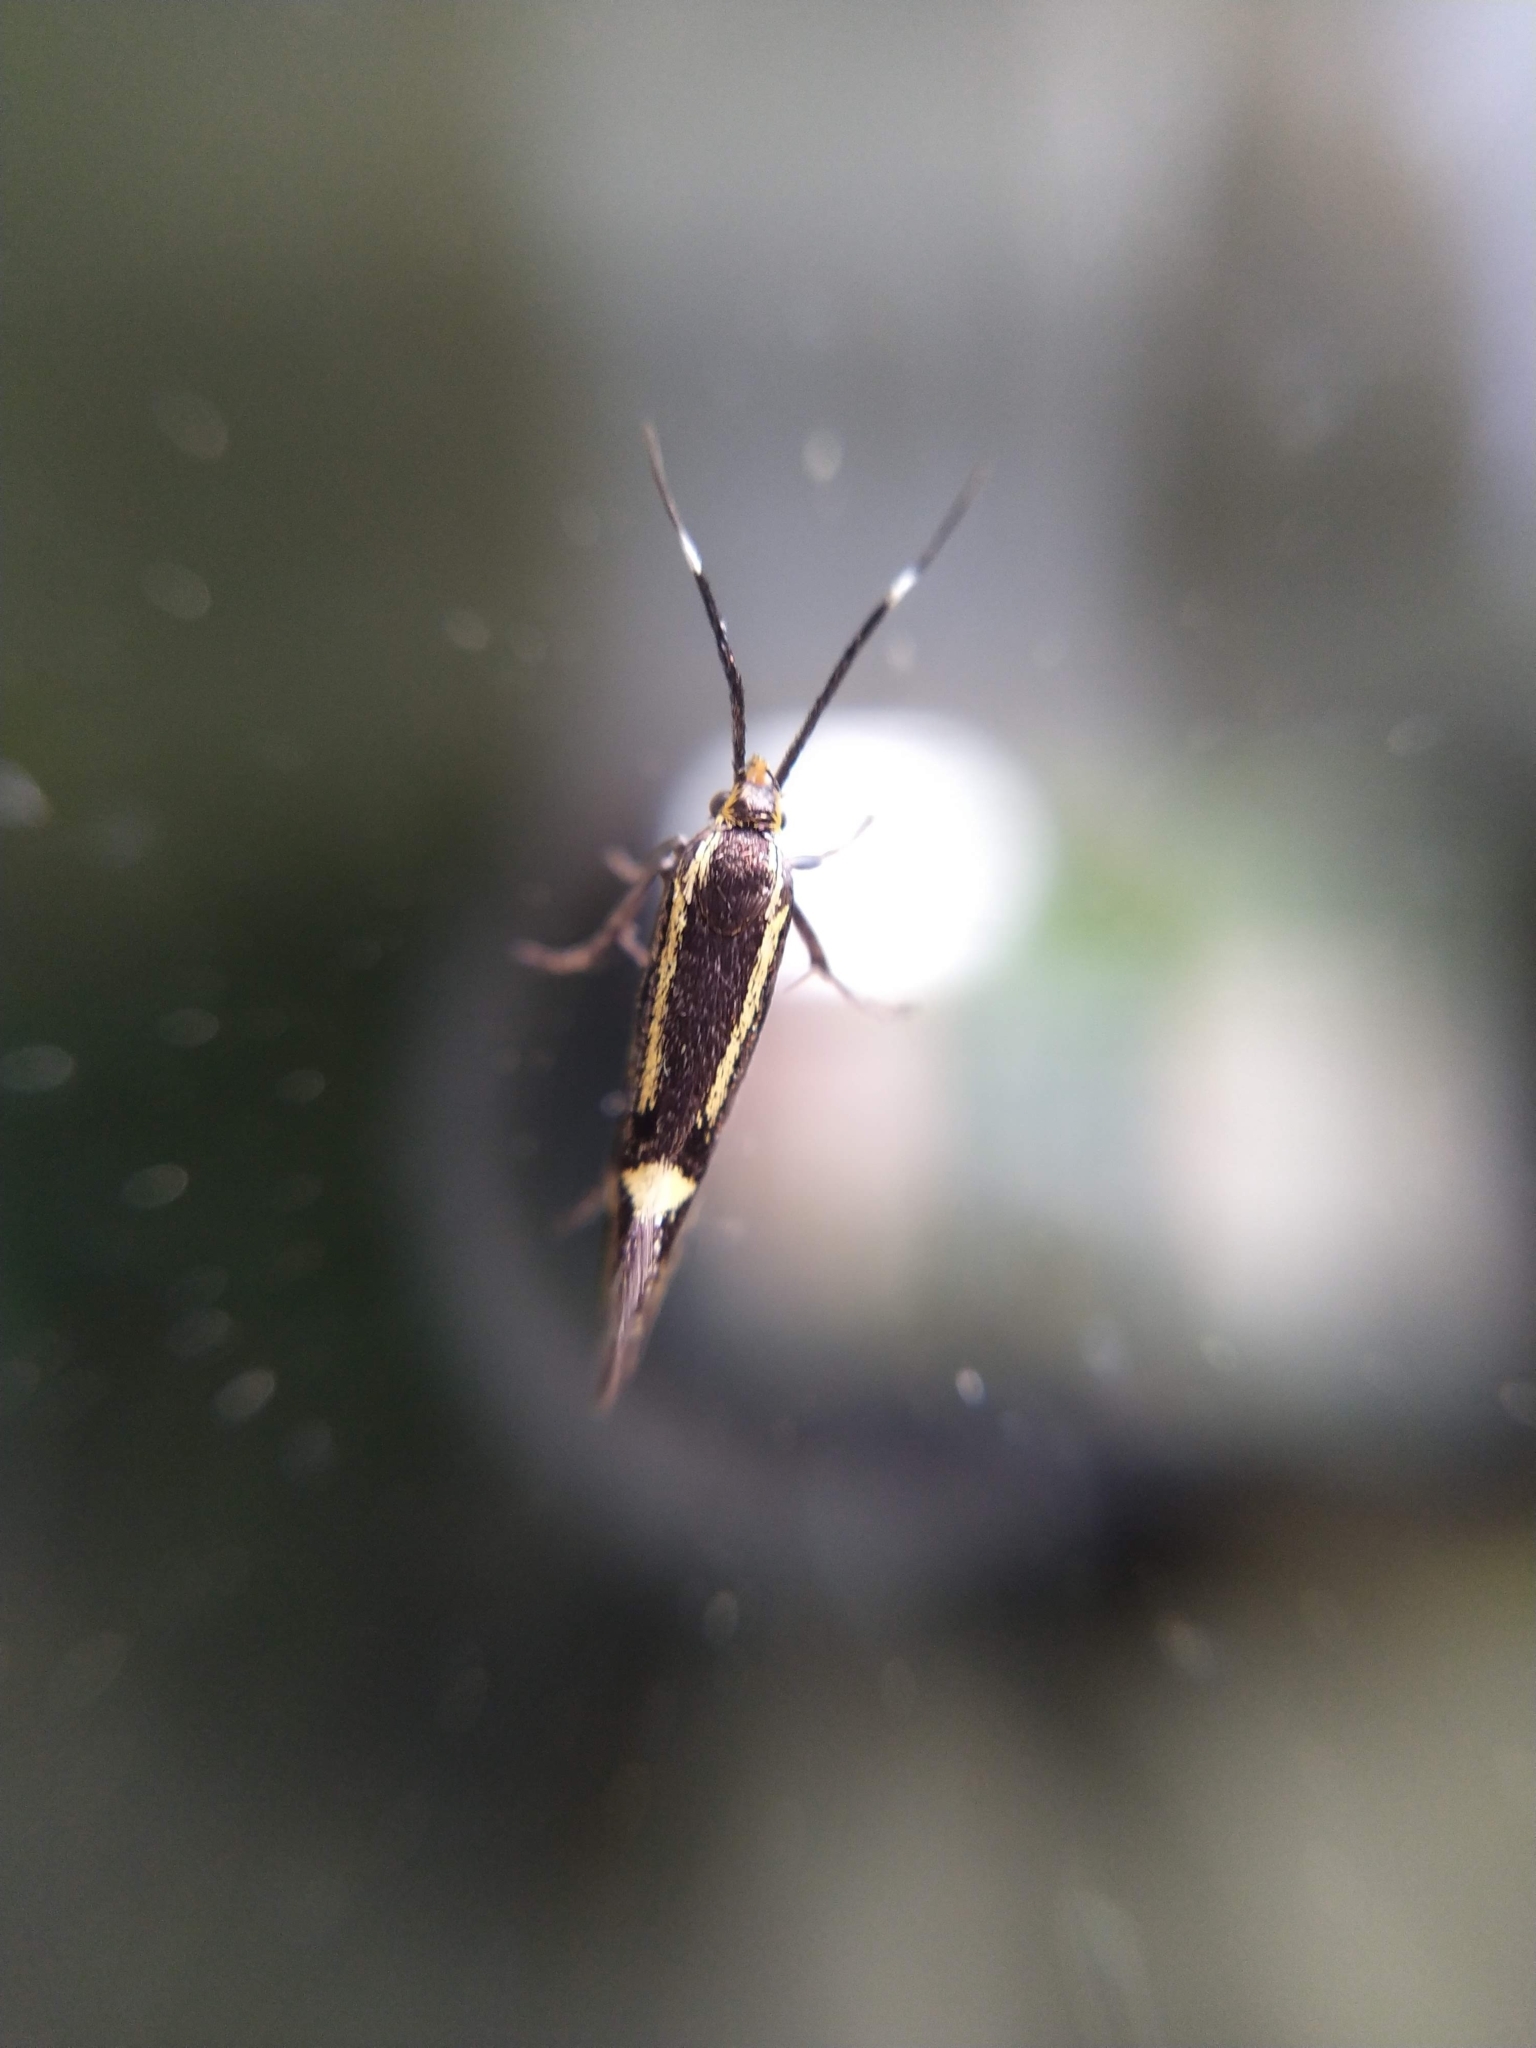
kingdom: Animalia
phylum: Arthropoda
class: Insecta
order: Lepidoptera
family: Oecophoridae
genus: Dafa
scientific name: Dafa Esperia sulphurella
